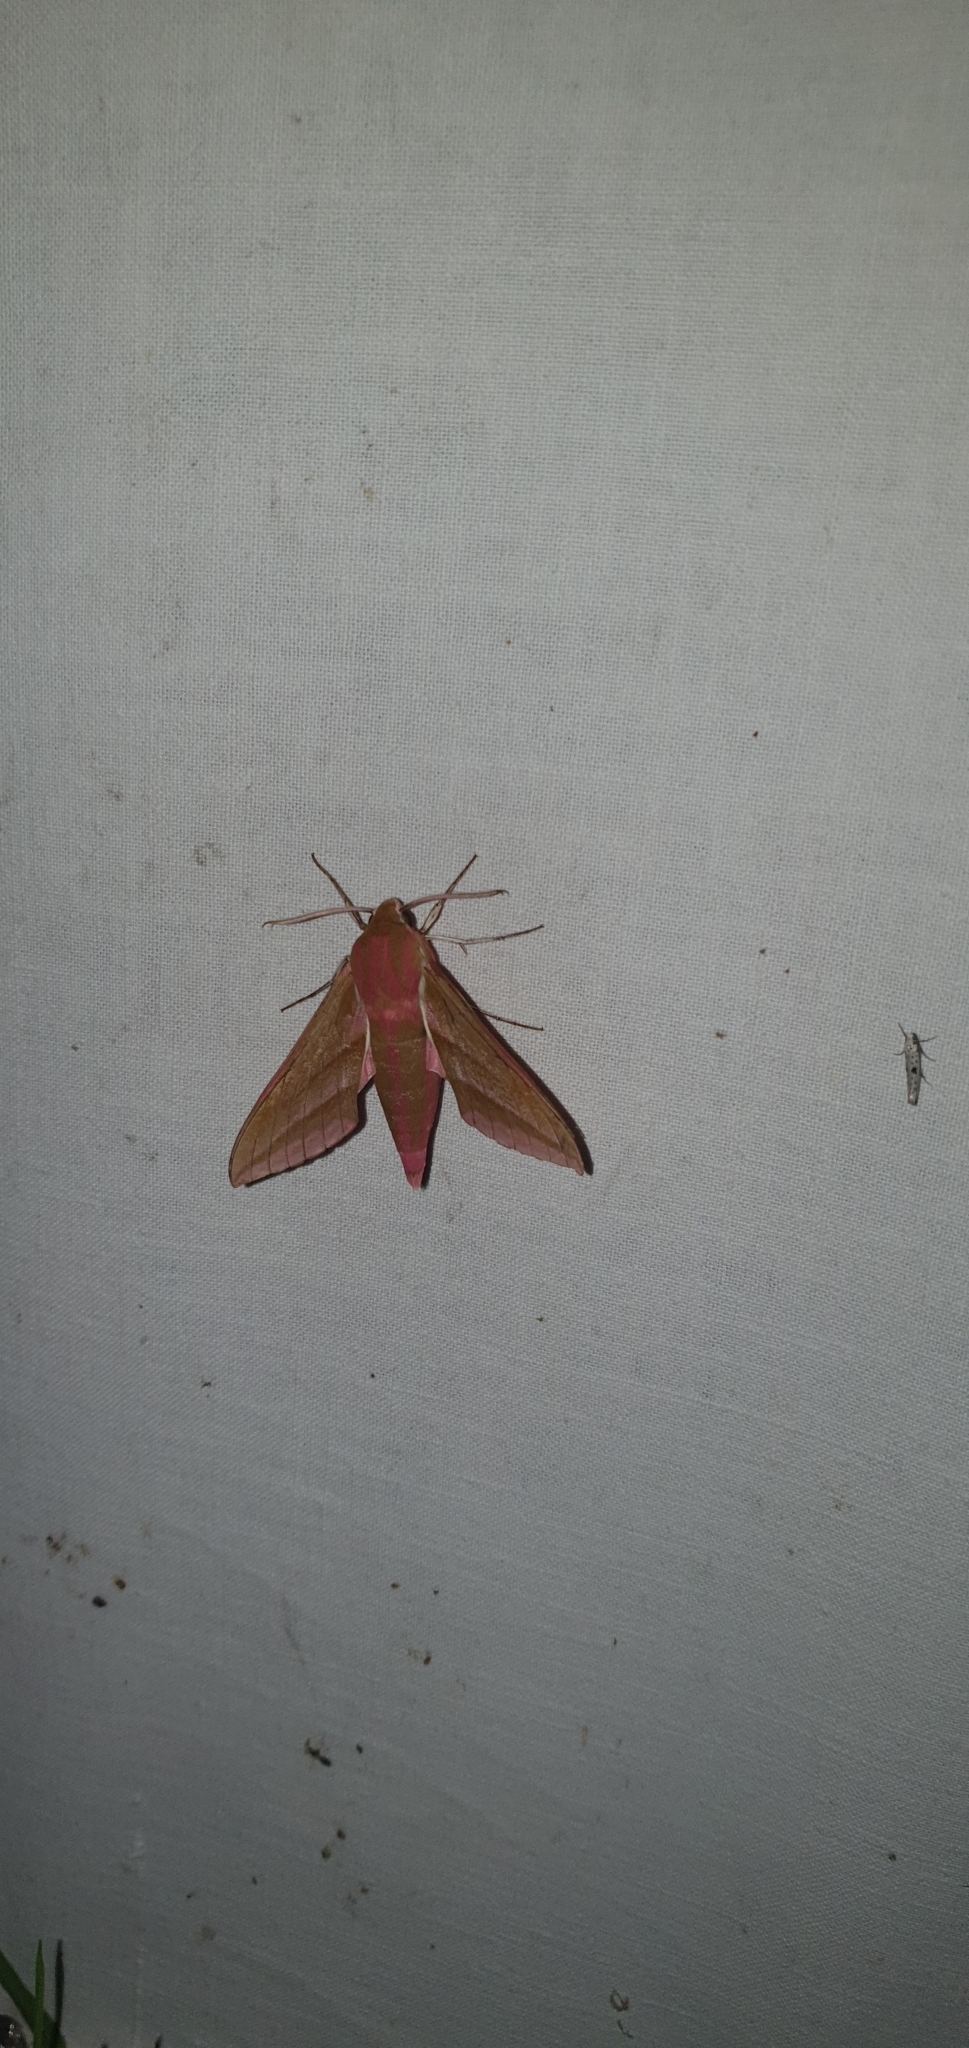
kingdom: Animalia
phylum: Arthropoda
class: Insecta
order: Lepidoptera
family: Sphingidae
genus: Deilephila
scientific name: Deilephila elpenor
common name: Elephant hawk-moth
